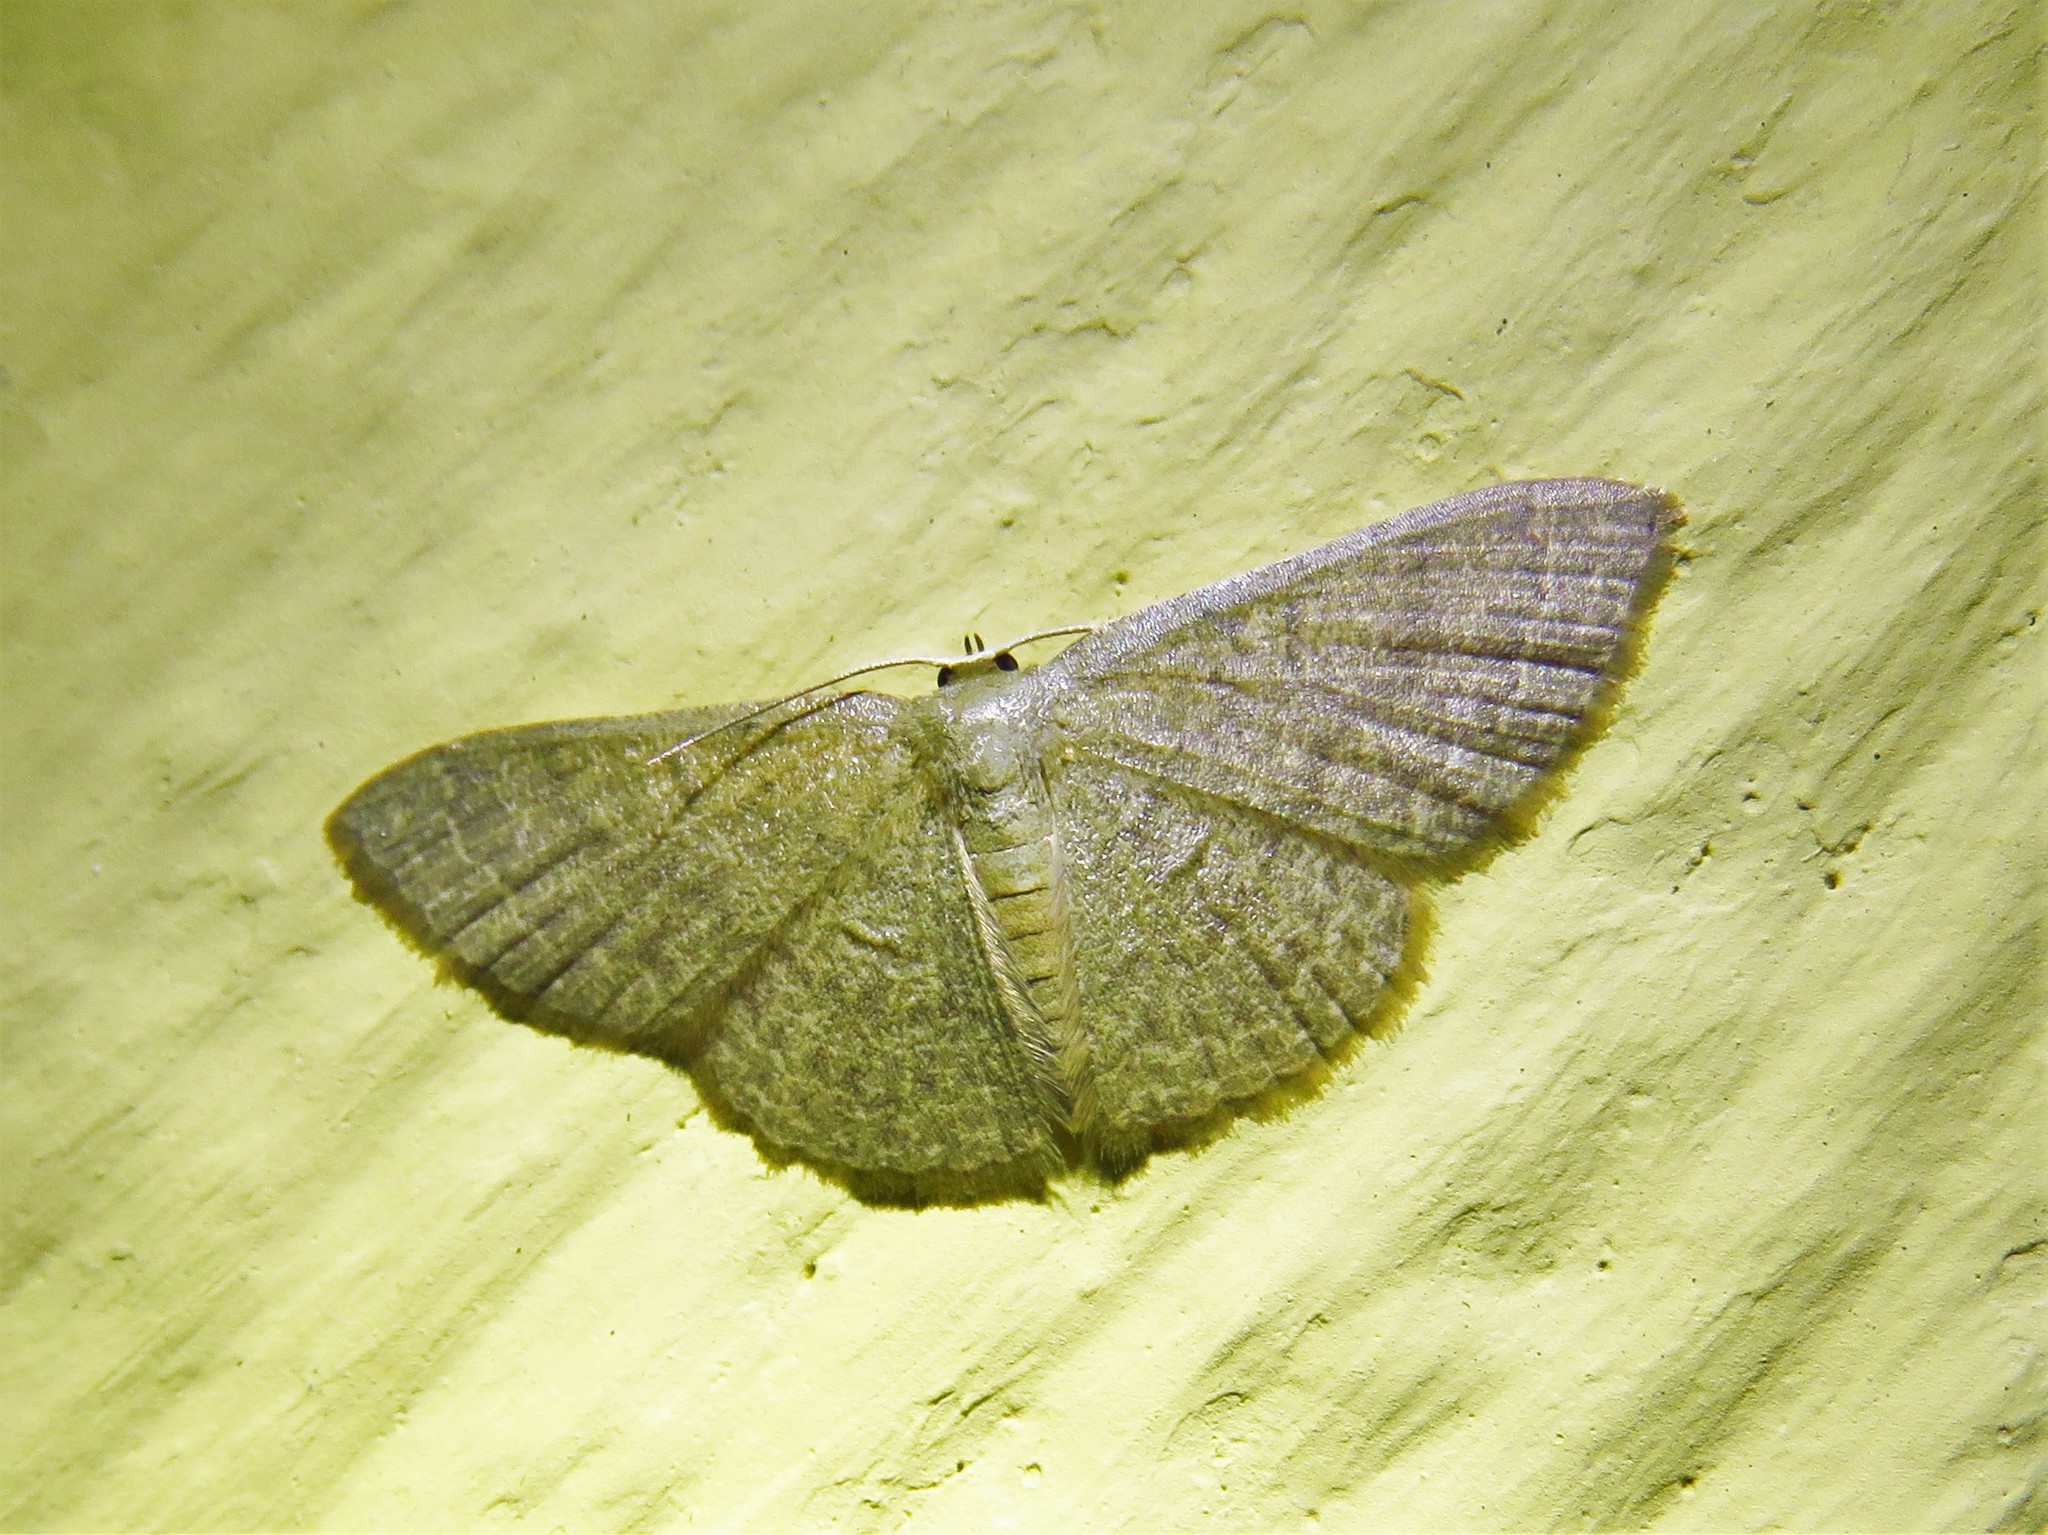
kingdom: Animalia
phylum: Arthropoda
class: Insecta
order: Lepidoptera
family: Geometridae
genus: Pleuroprucha
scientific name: Pleuroprucha insulsaria
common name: Common tan wave
